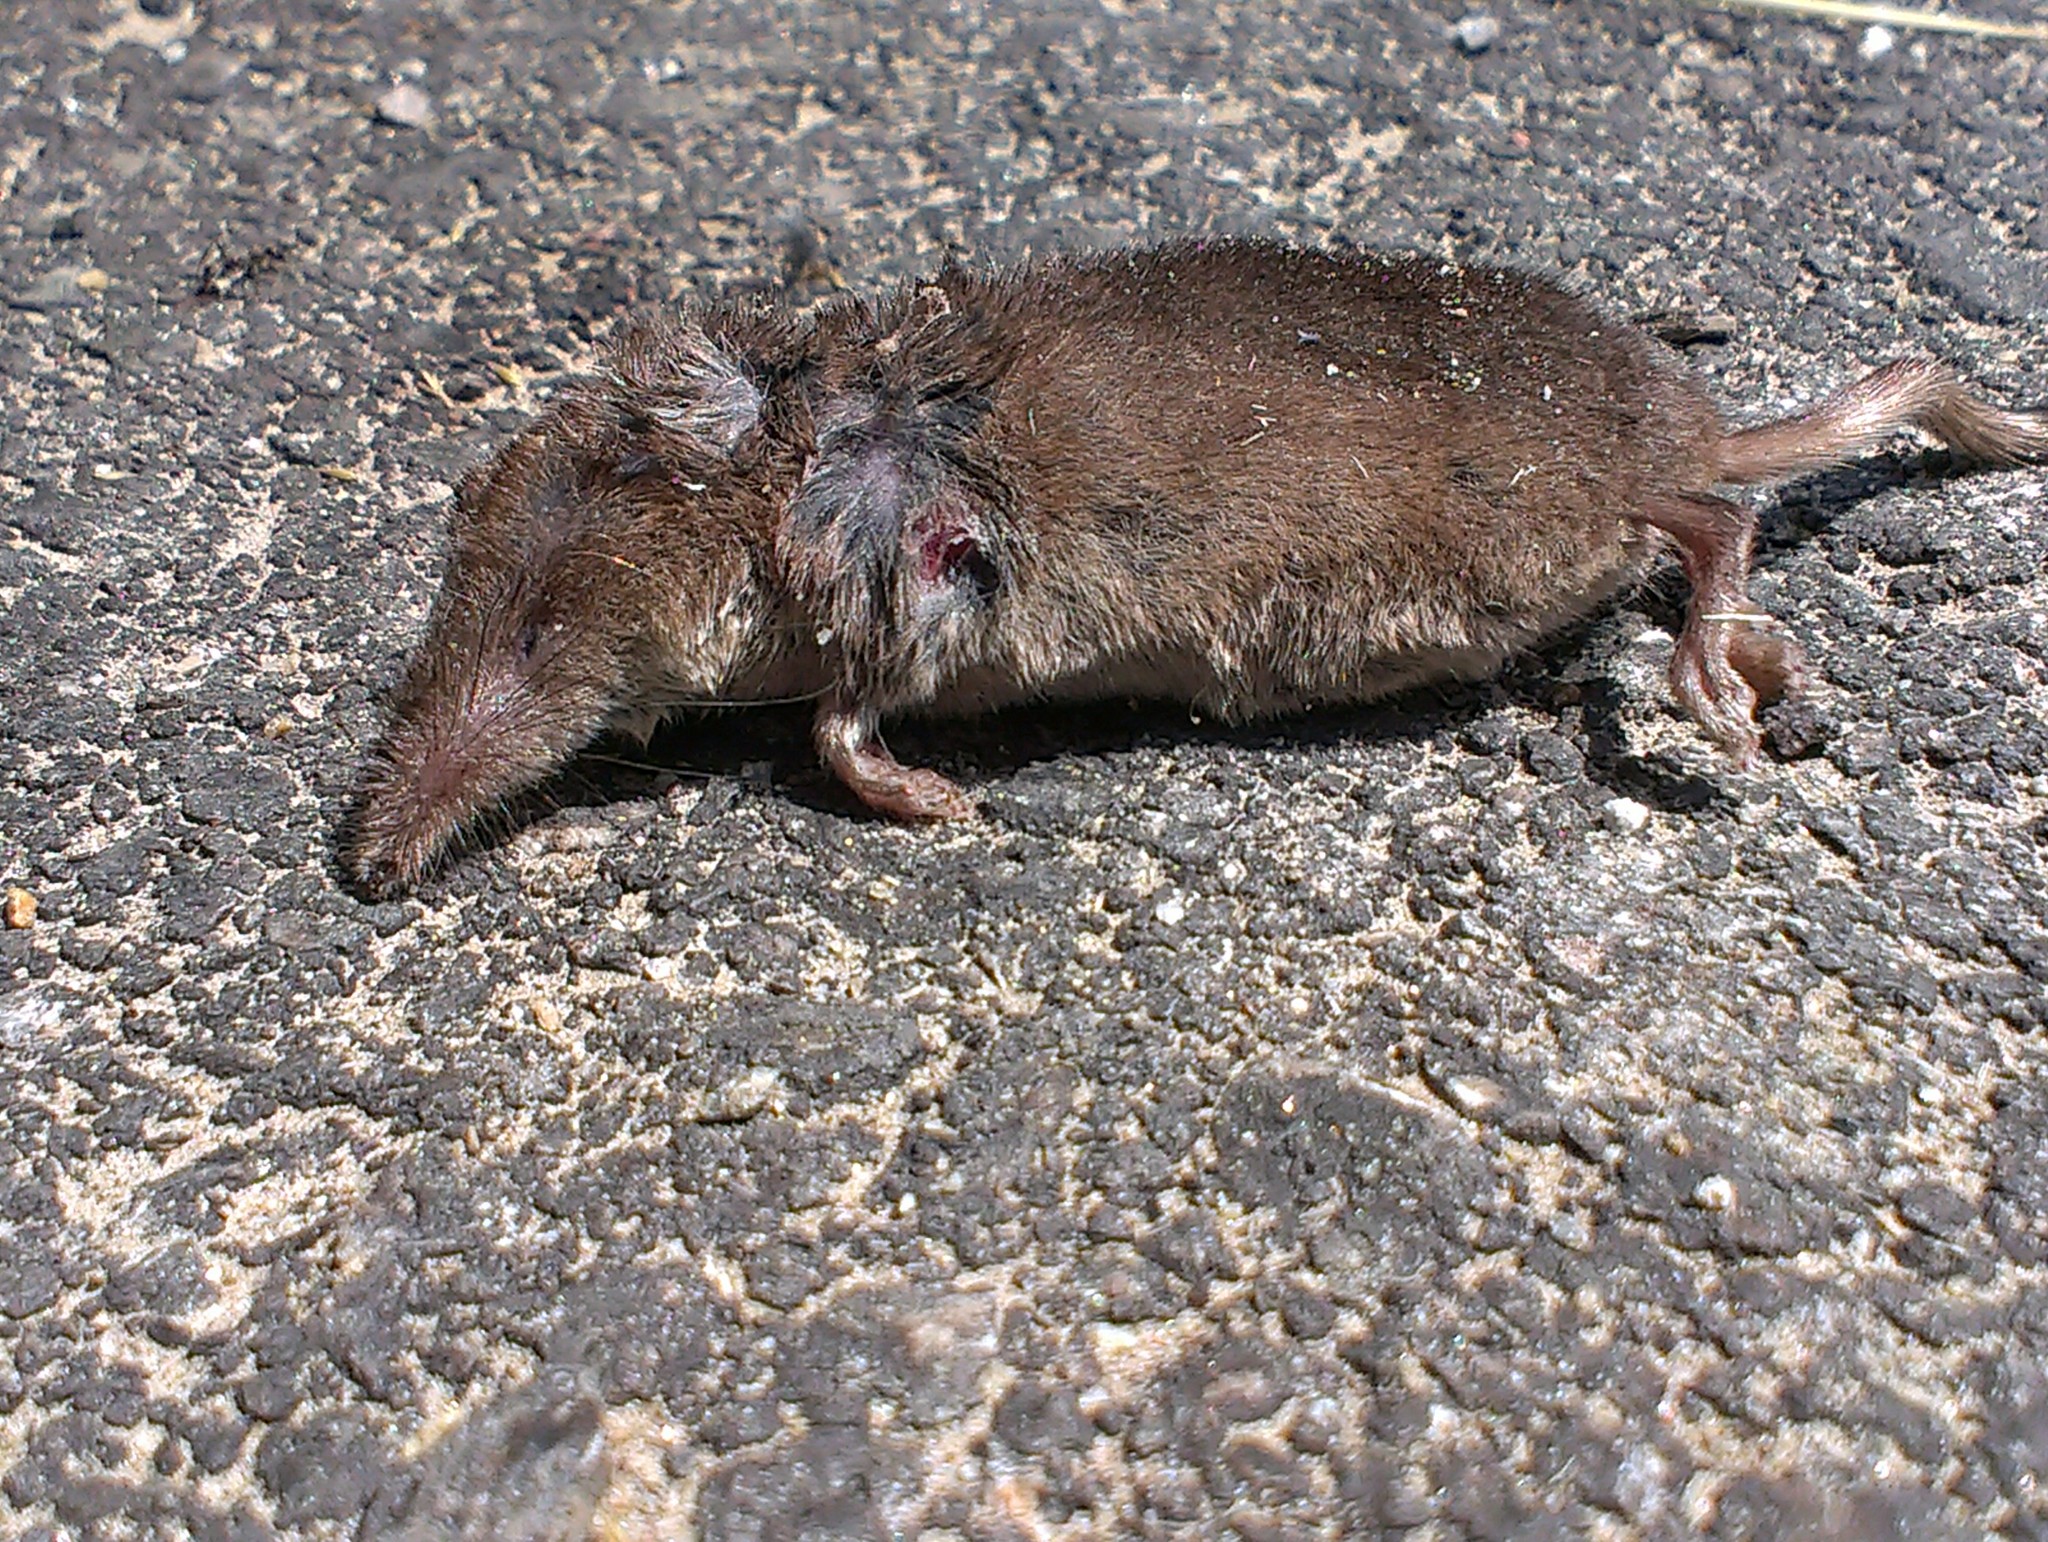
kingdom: Animalia
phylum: Chordata
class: Mammalia
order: Soricomorpha
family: Soricidae
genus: Sorex
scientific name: Sorex antinorii
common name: Valais shrew
